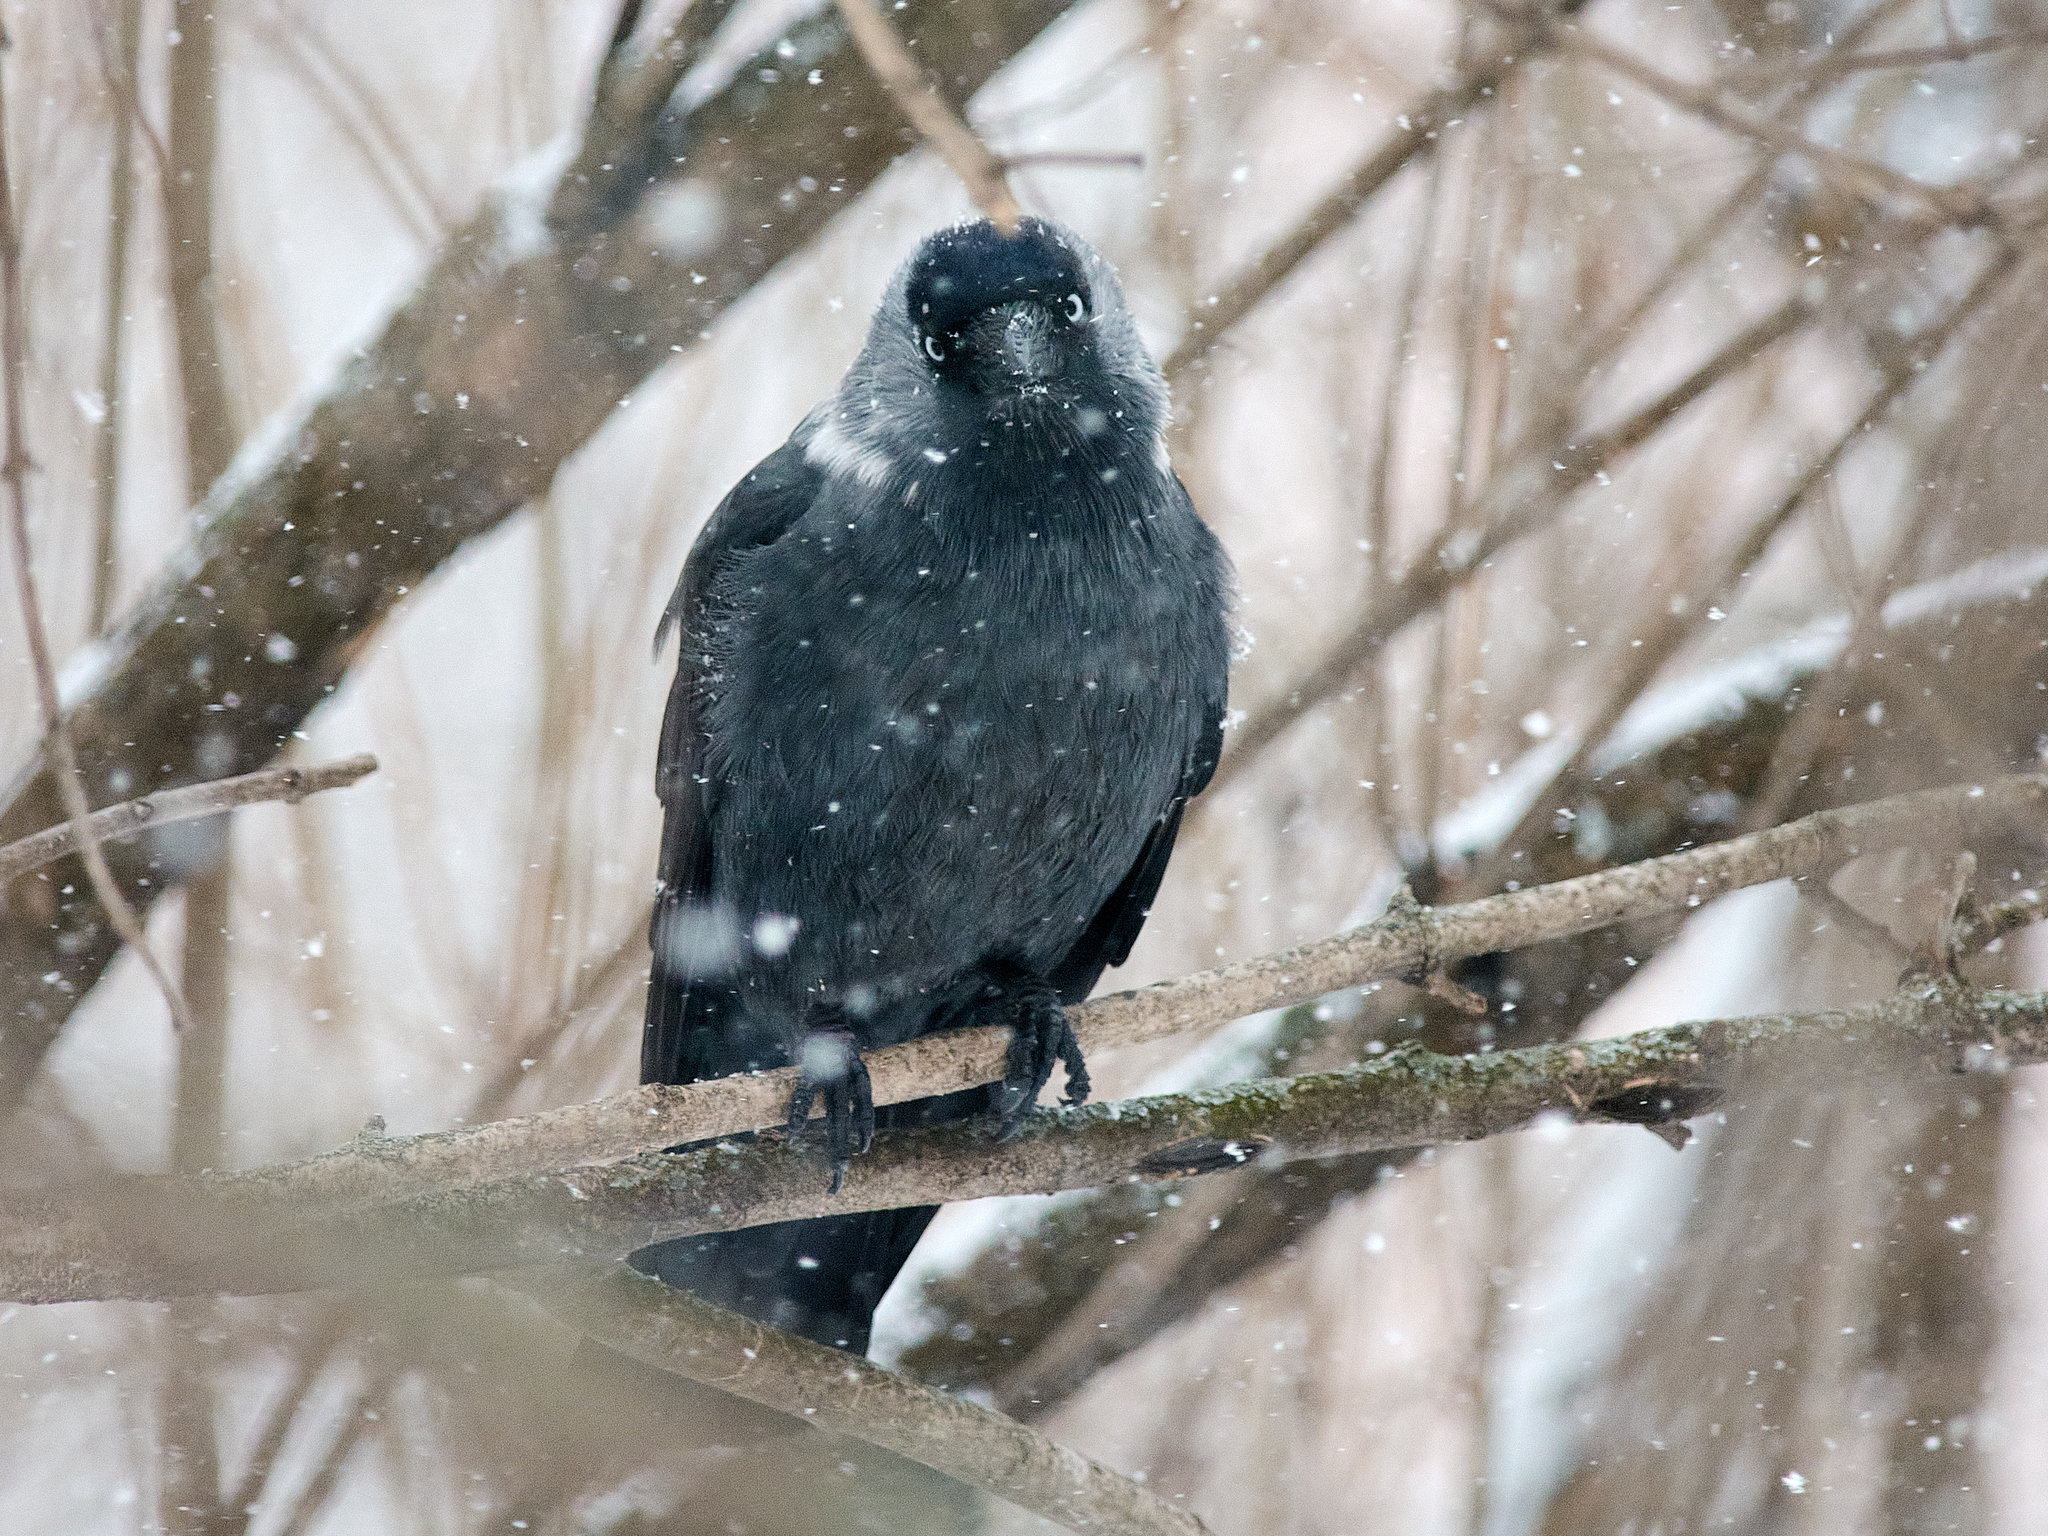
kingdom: Animalia
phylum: Chordata
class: Aves
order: Passeriformes
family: Corvidae
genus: Coloeus
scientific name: Coloeus monedula
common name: Western jackdaw
